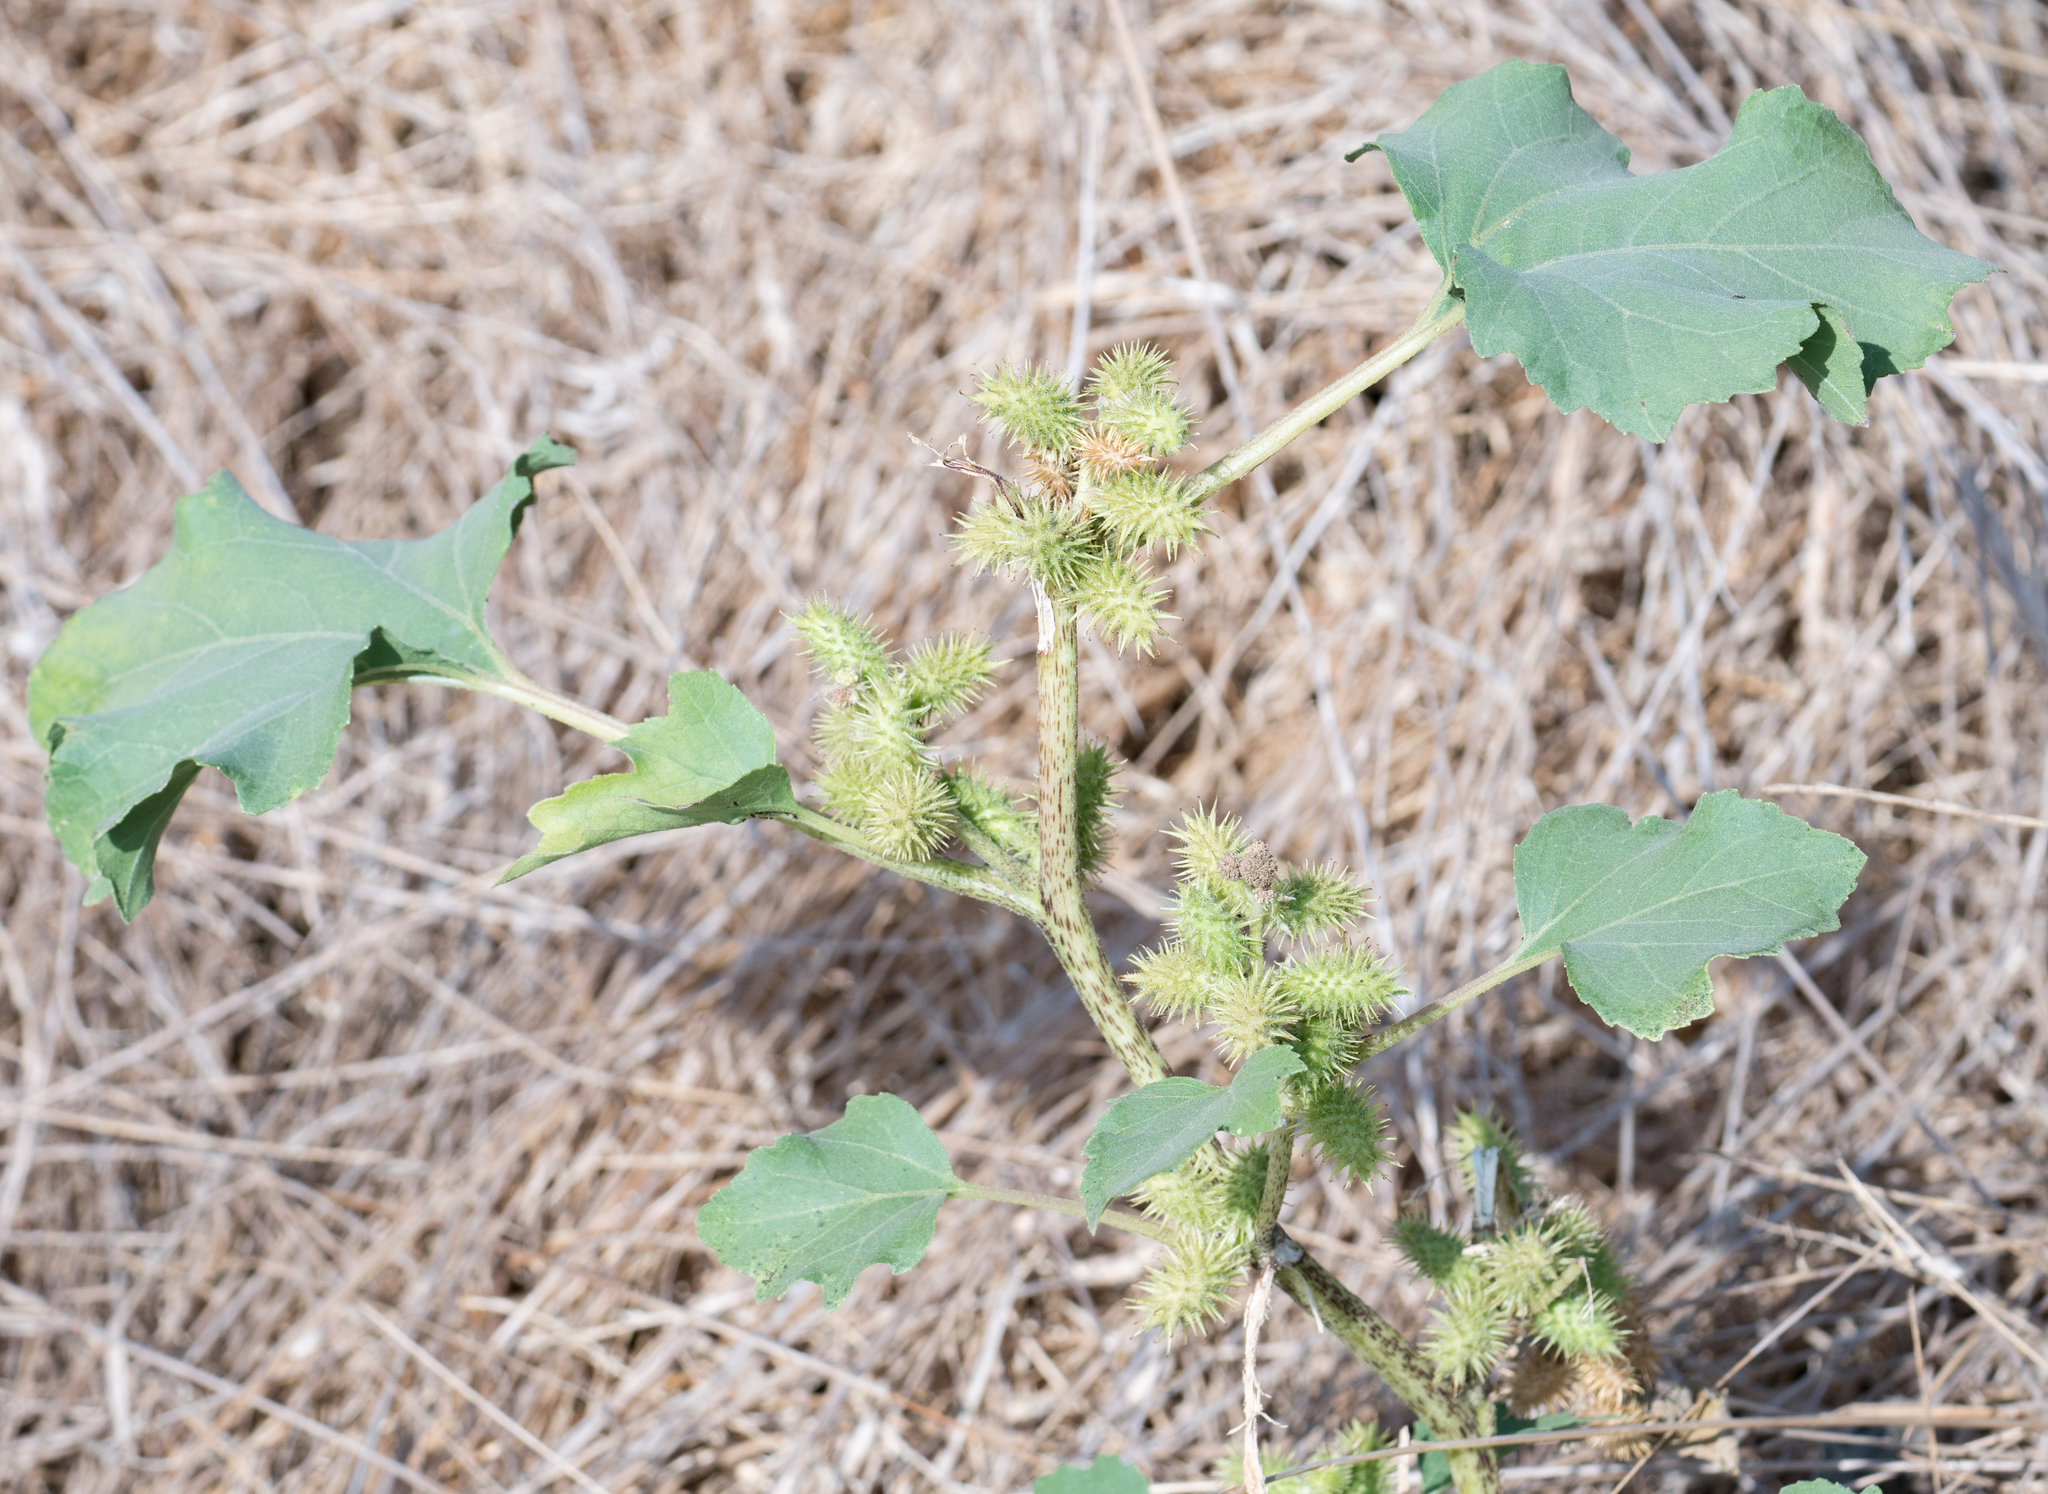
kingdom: Plantae
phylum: Tracheophyta
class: Magnoliopsida
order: Asterales
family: Asteraceae
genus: Xanthium
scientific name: Xanthium strumarium
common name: Rough cocklebur
